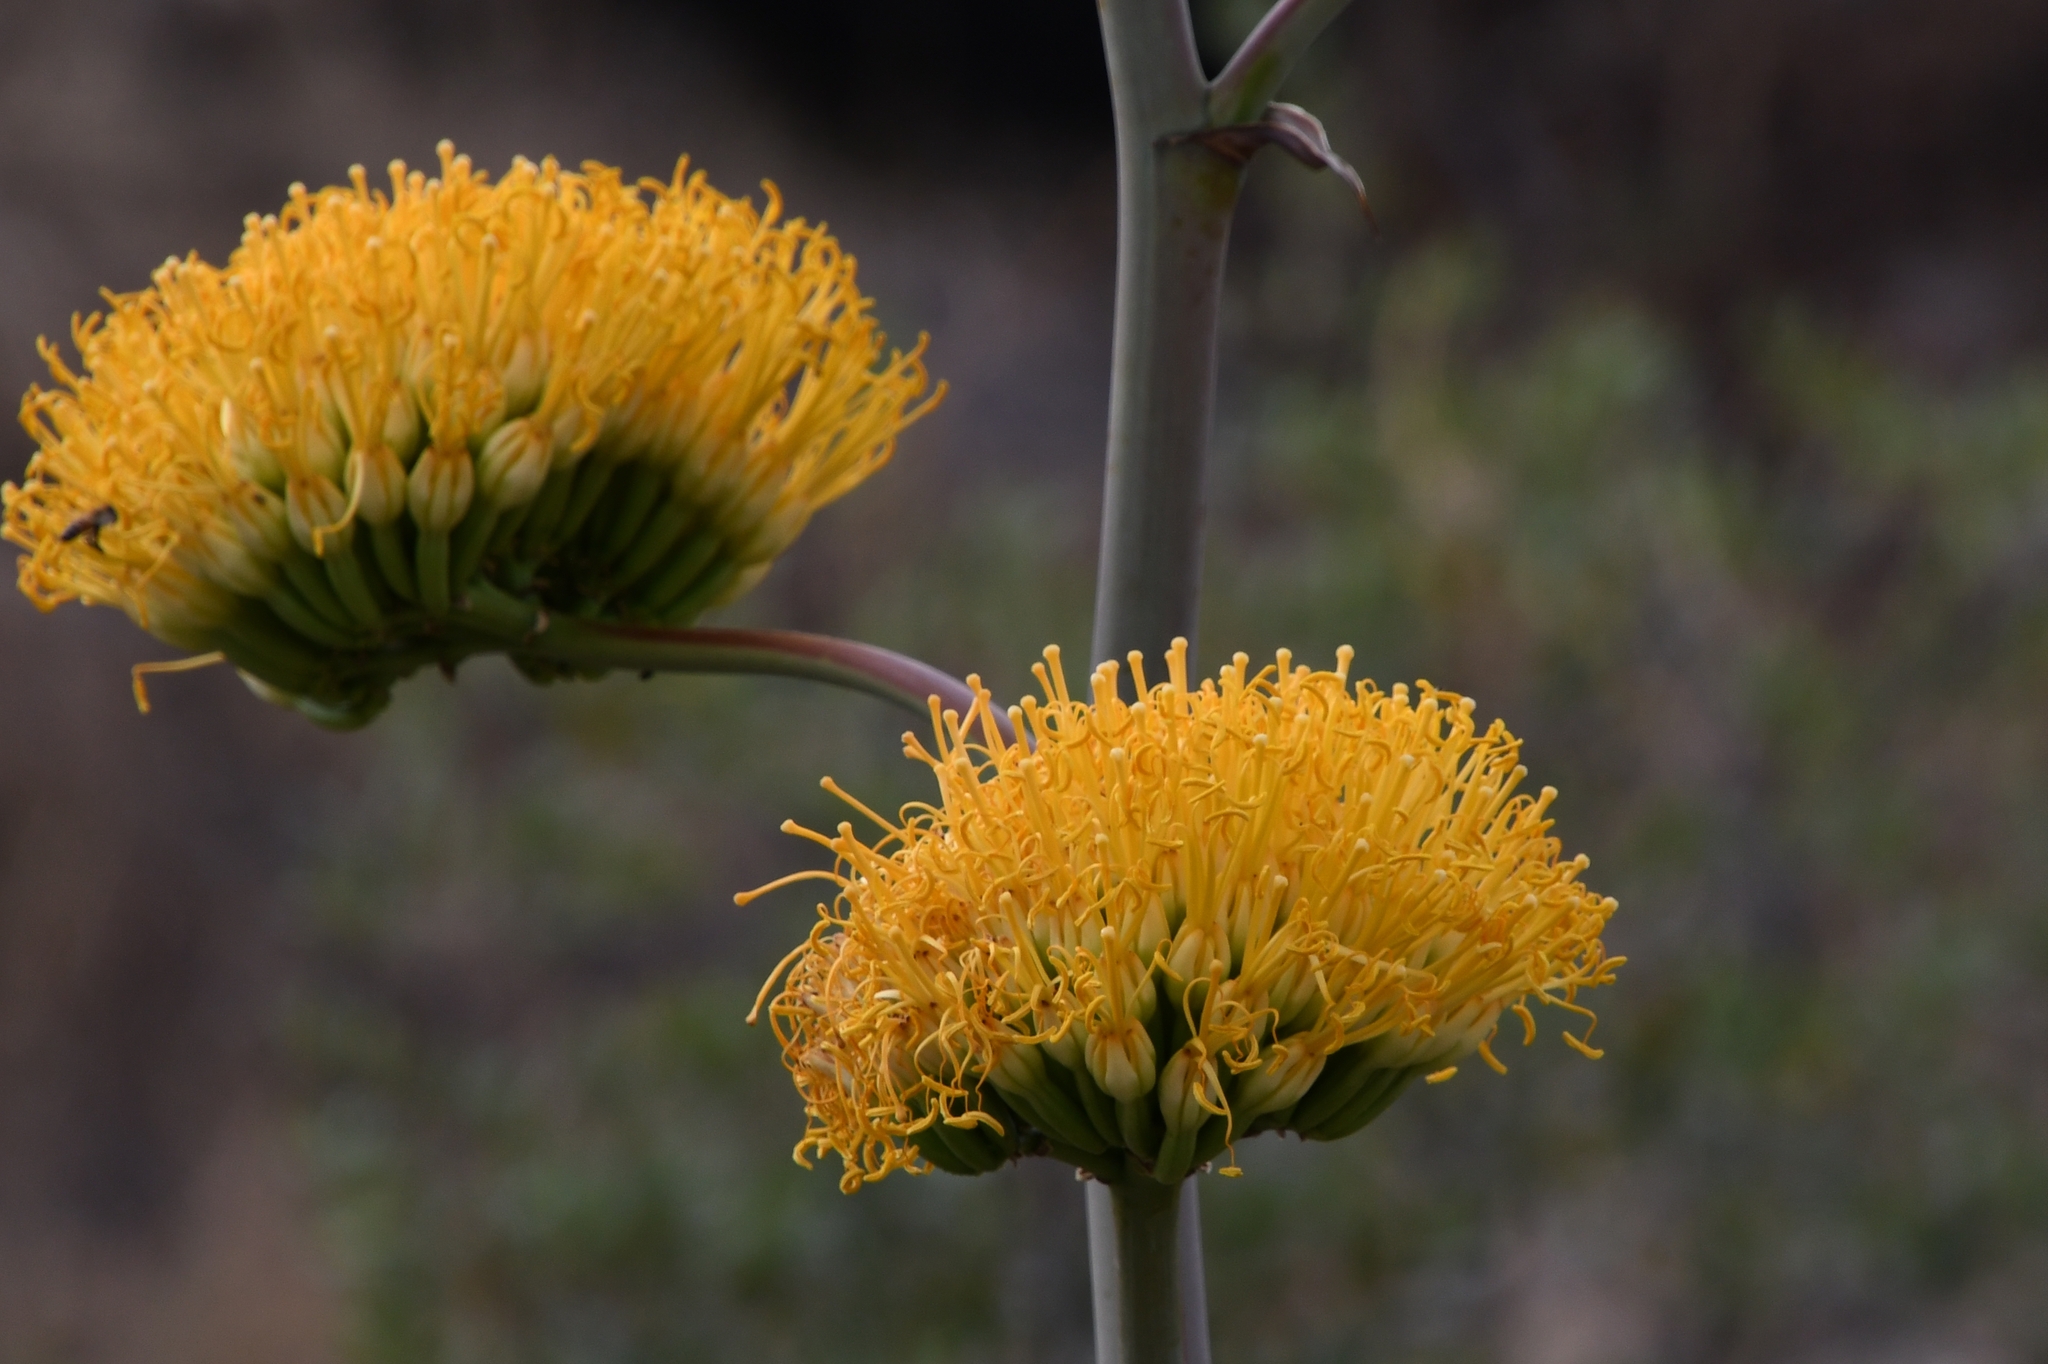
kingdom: Plantae
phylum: Tracheophyta
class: Liliopsida
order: Asparagales
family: Asparagaceae
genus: Agave
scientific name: Agave chrysantha
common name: Golden-flowered agave
